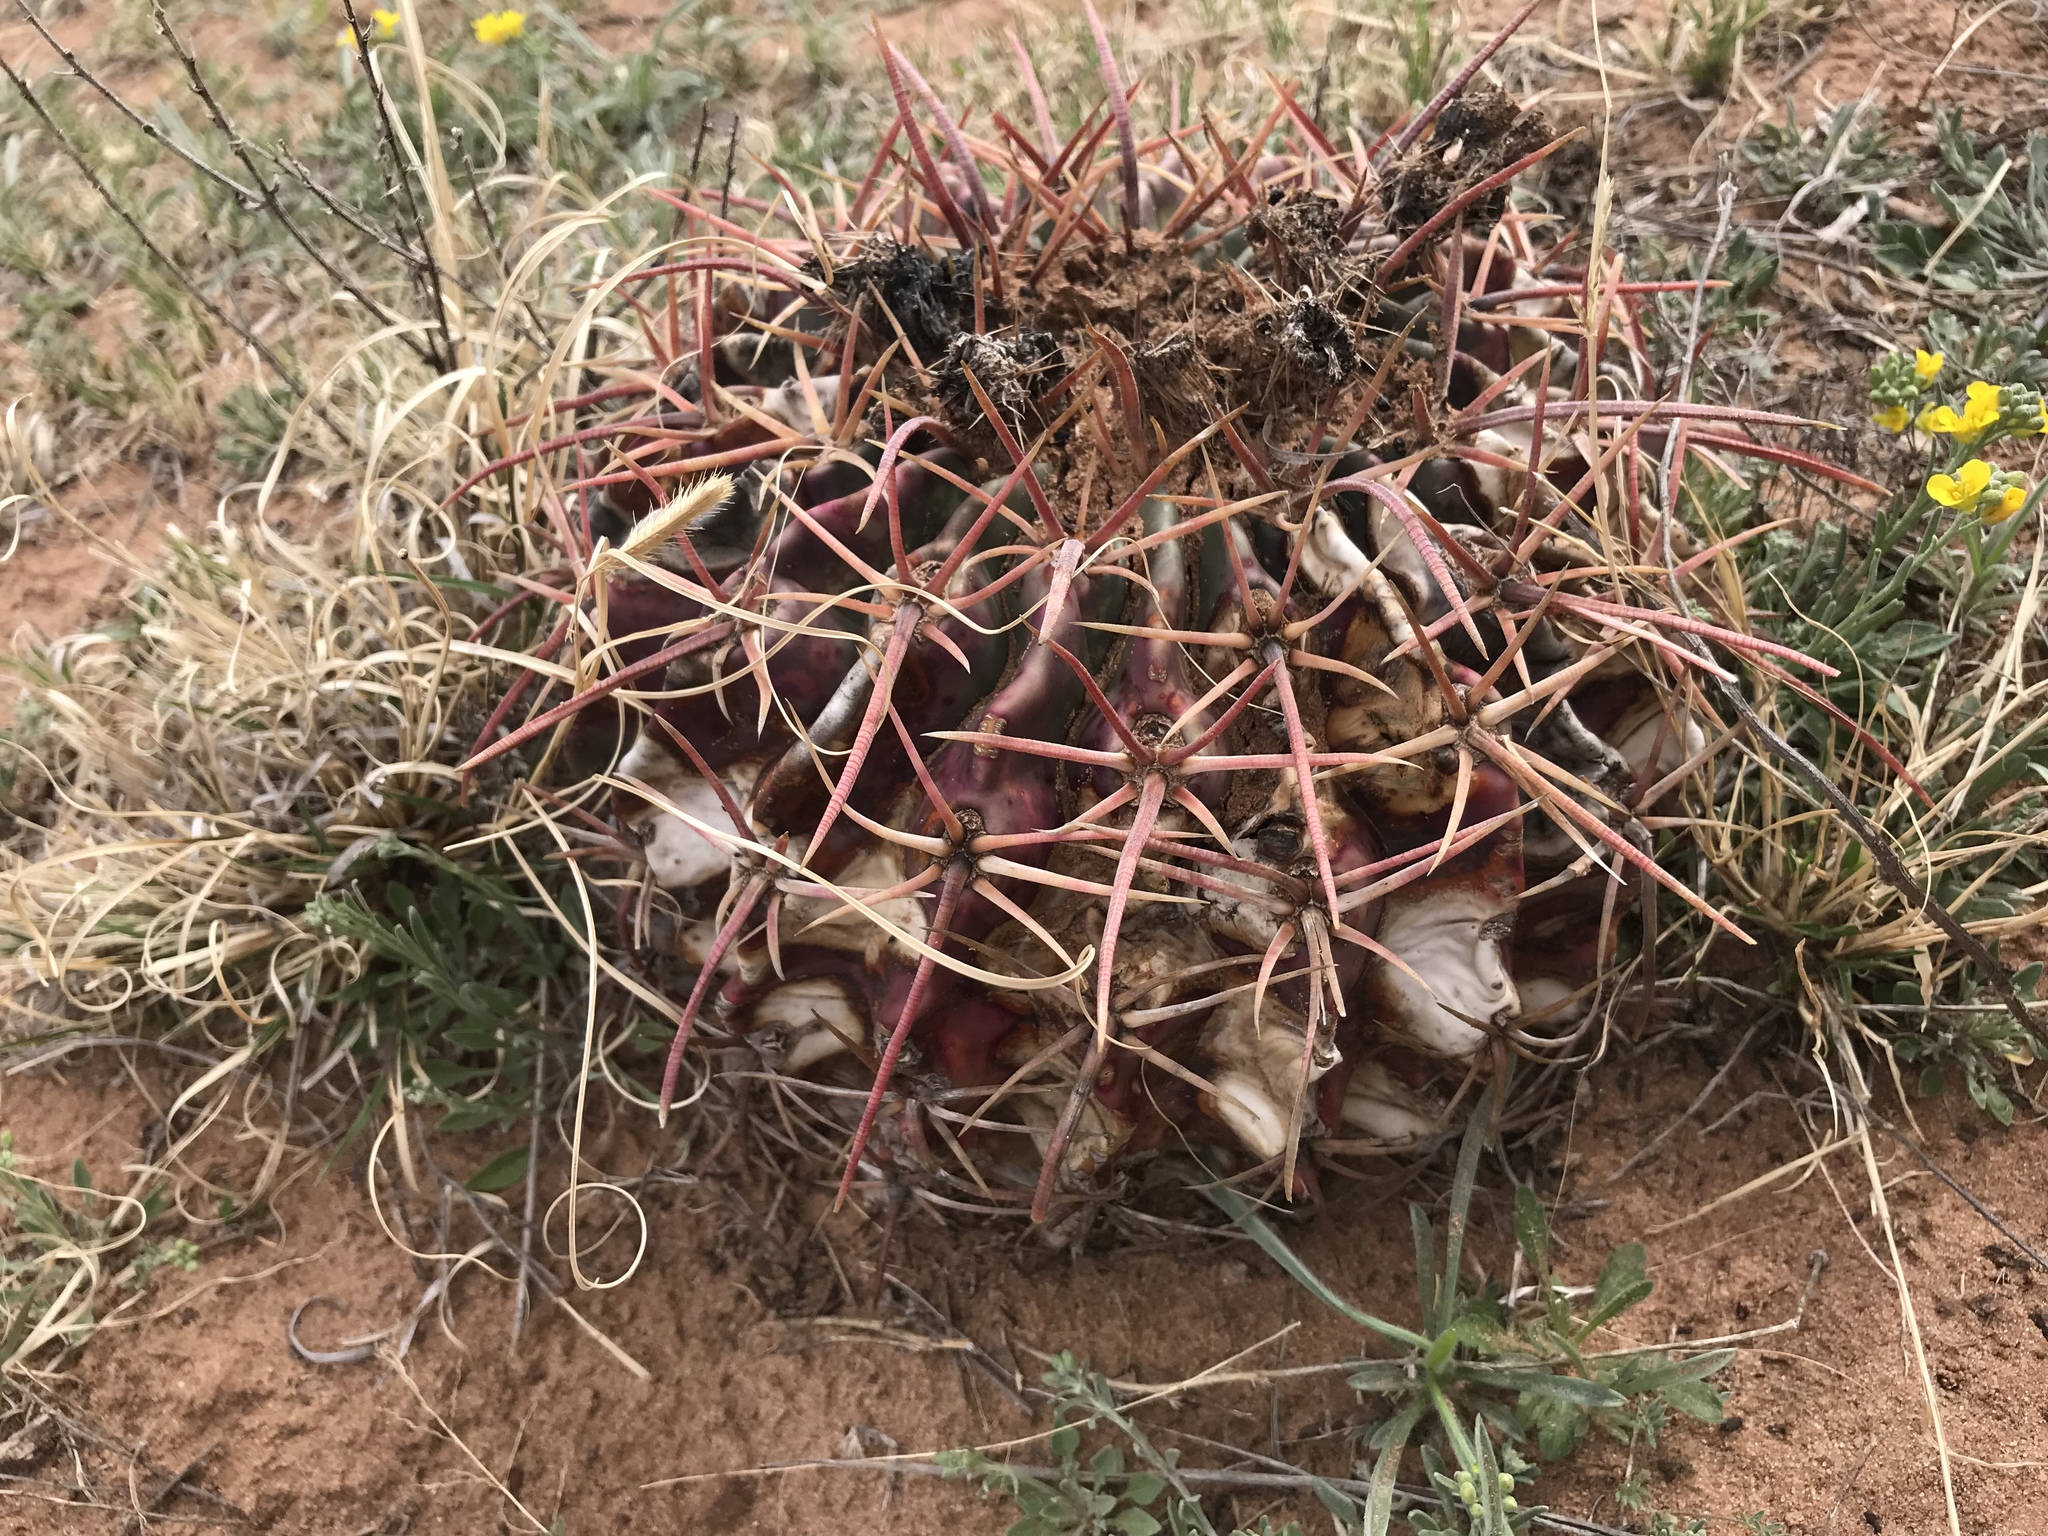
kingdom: Plantae
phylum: Tracheophyta
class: Magnoliopsida
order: Caryophyllales
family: Cactaceae
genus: Echinocactus
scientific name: Echinocactus texensis
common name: Devil's pincushion
